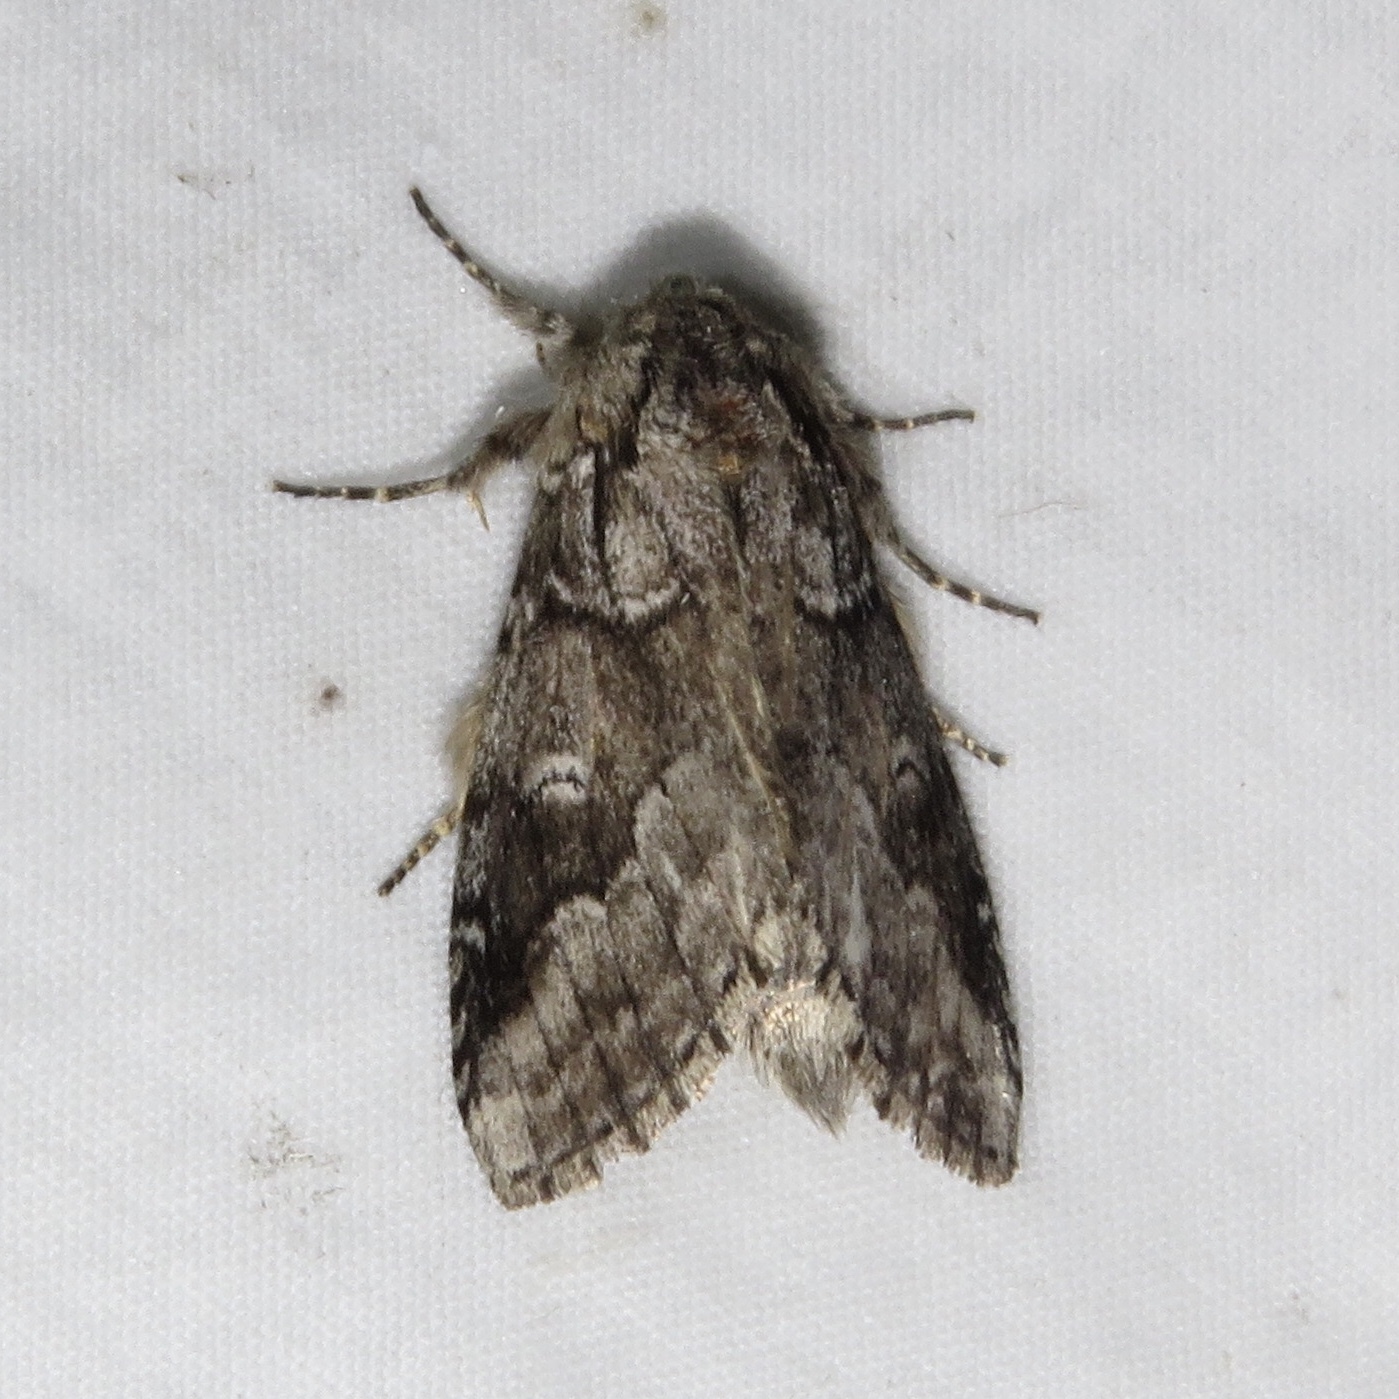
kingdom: Animalia
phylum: Arthropoda
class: Insecta
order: Lepidoptera
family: Notodontidae
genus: Lochmaeus
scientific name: Lochmaeus bilineata
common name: Double-lined prominent
